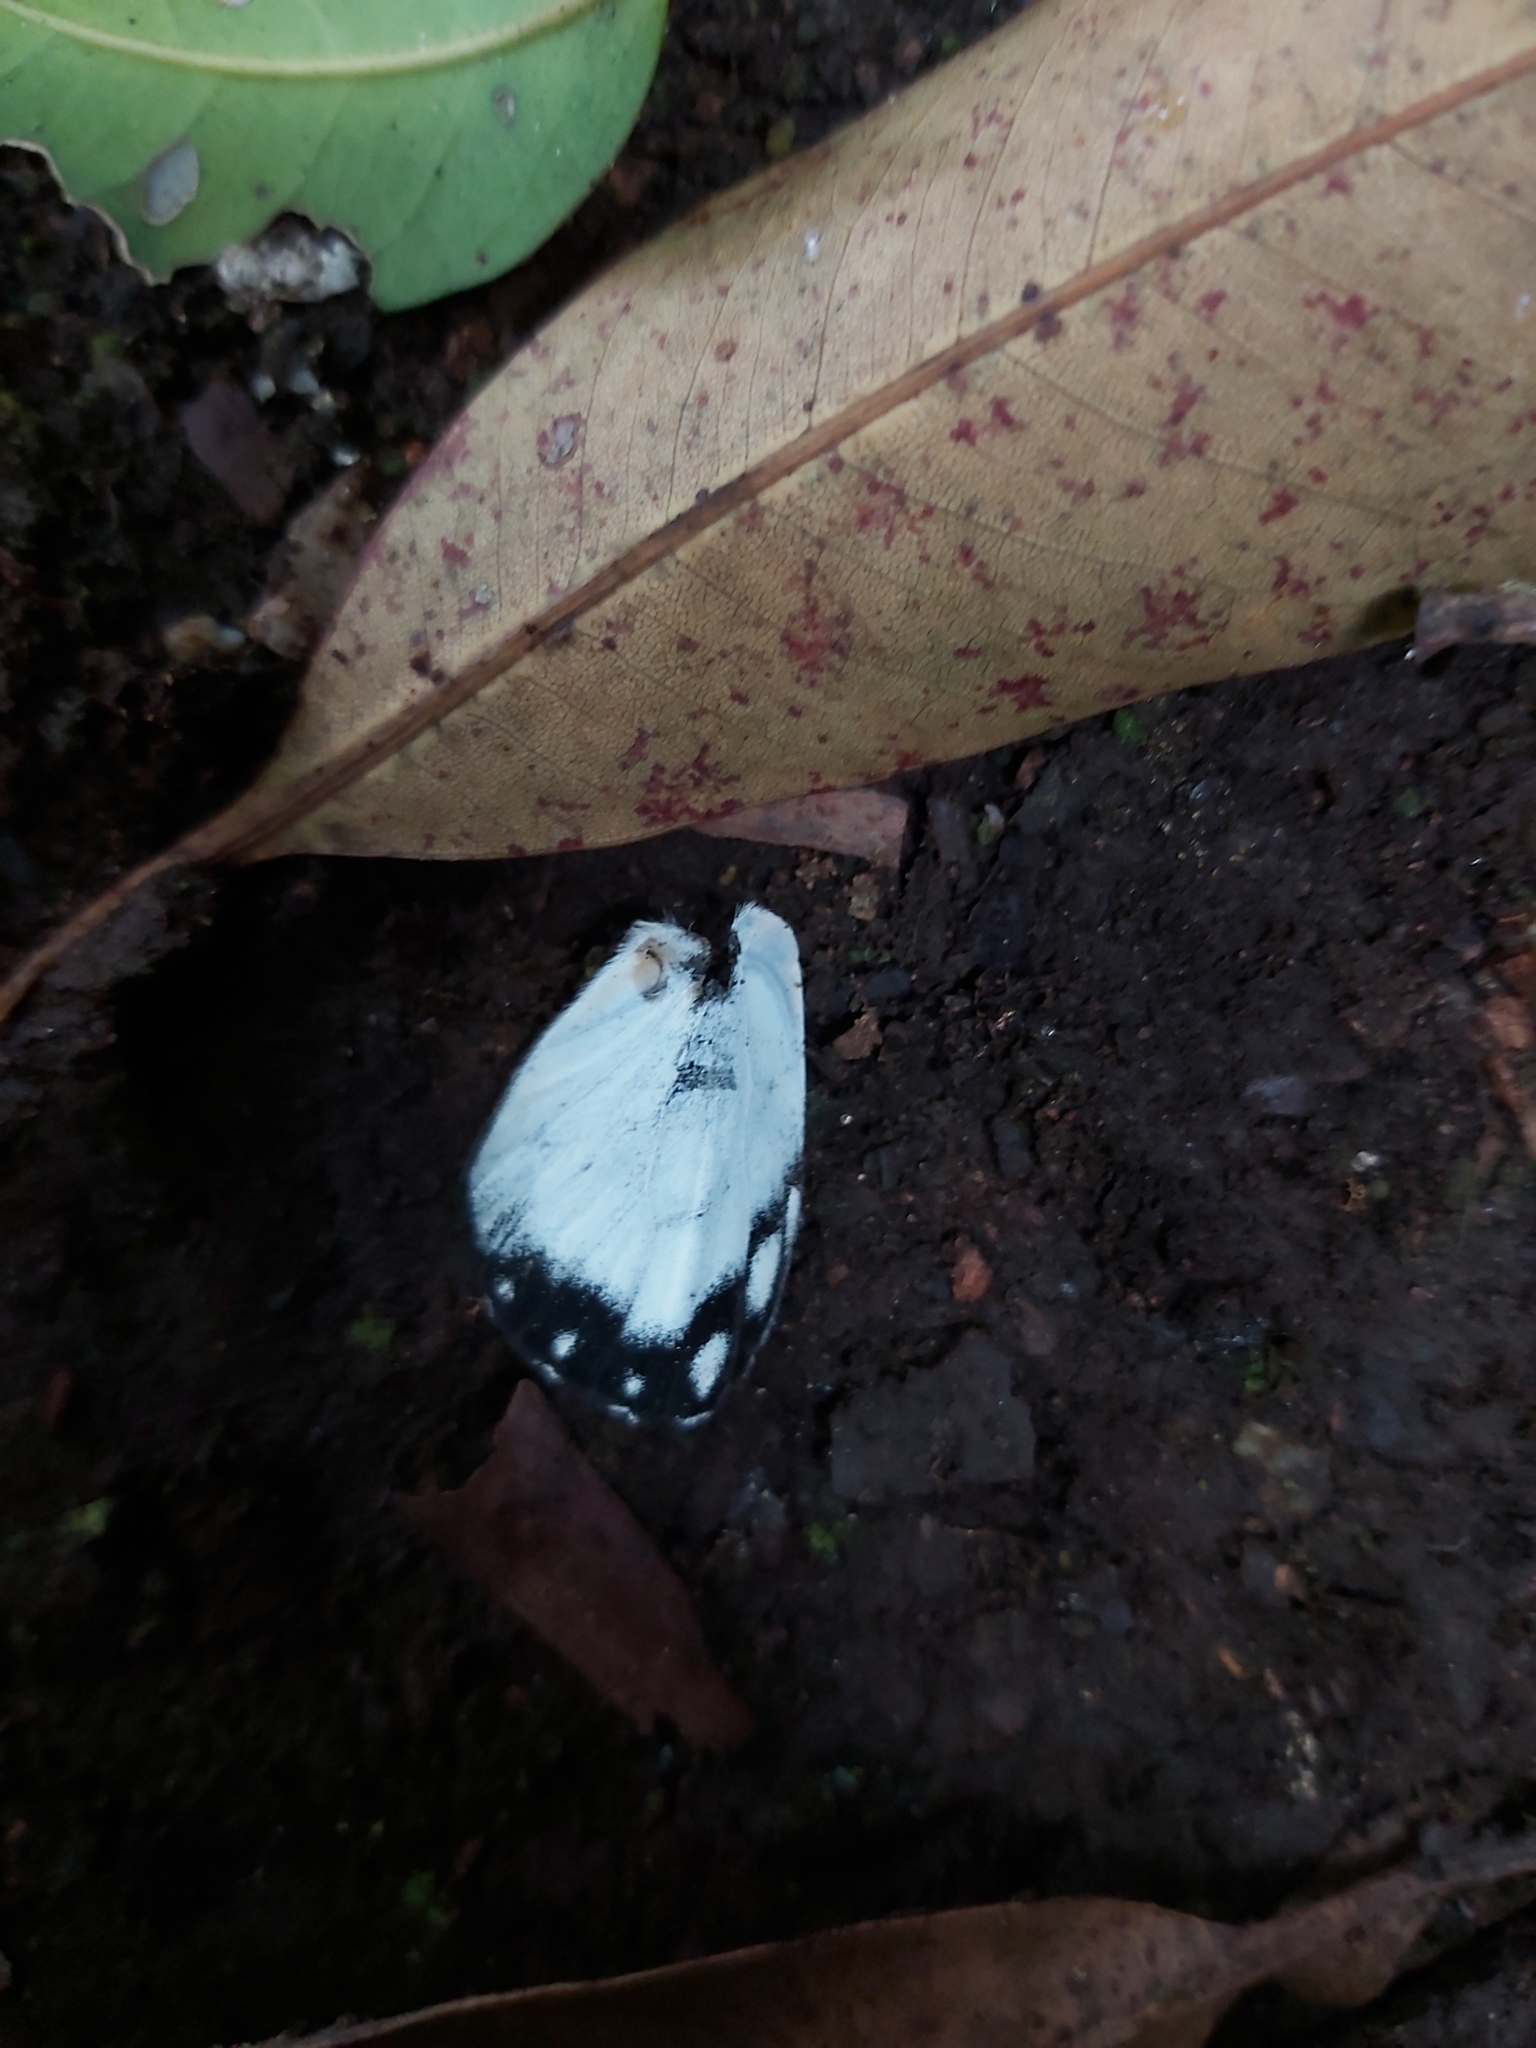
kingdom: Animalia
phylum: Arthropoda
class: Insecta
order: Lepidoptera
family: Pieridae
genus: Belenois
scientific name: Belenois java
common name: Caper white
